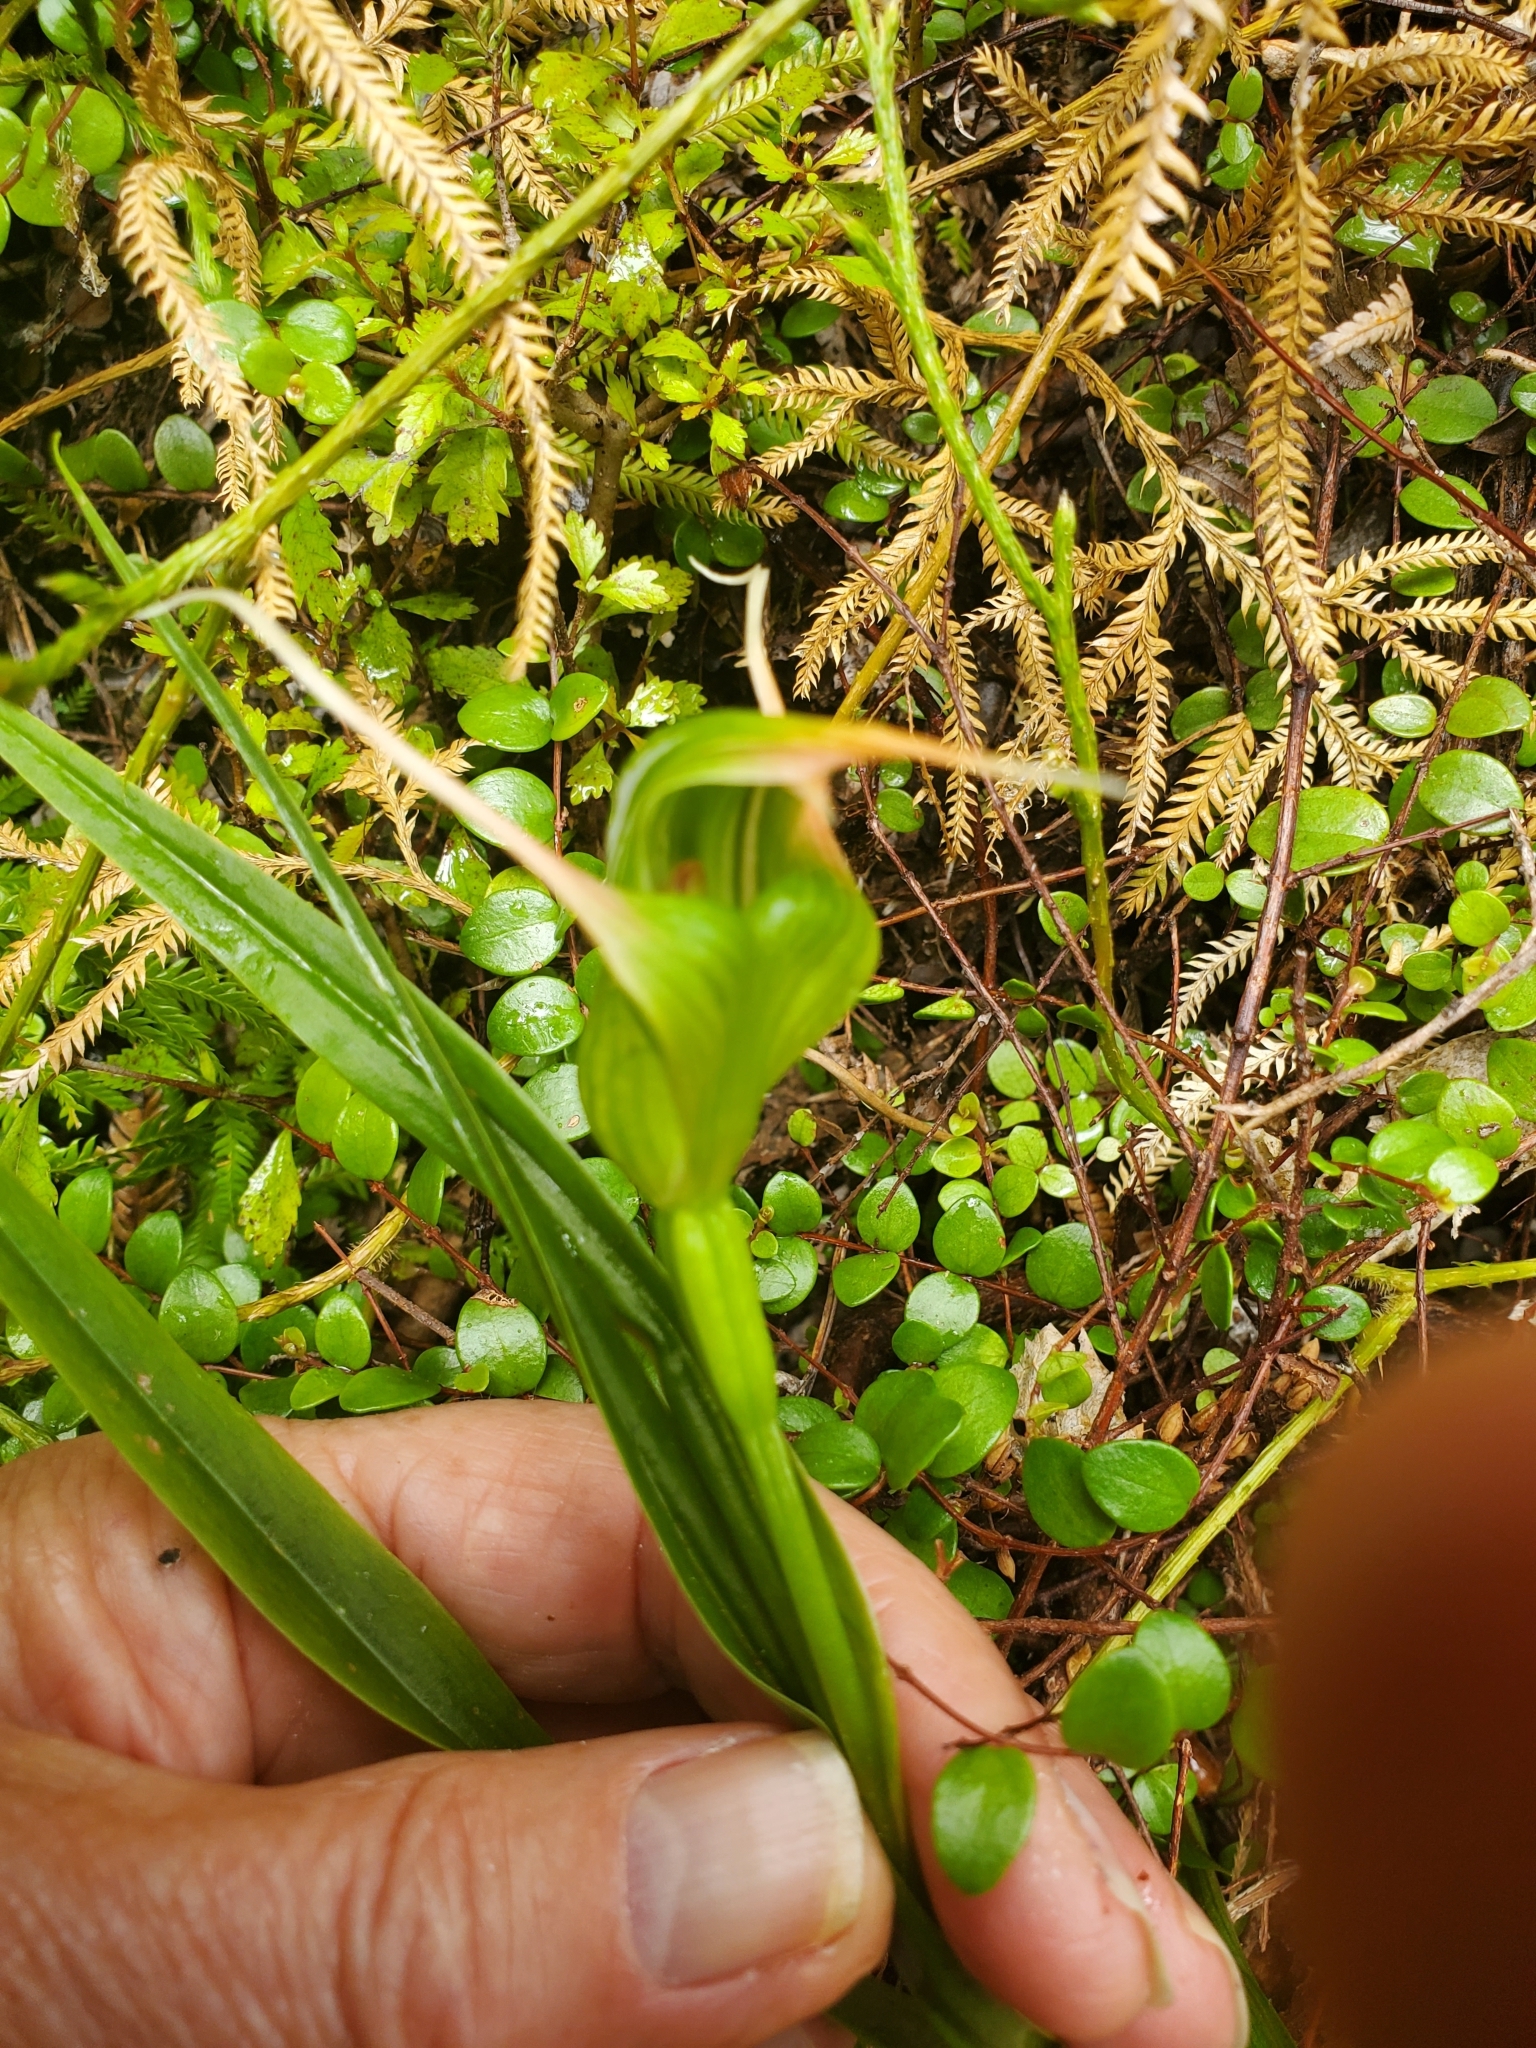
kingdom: Plantae
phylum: Tracheophyta
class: Liliopsida
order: Asparagales
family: Orchidaceae
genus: Pterostylis
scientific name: Pterostylis banksii
